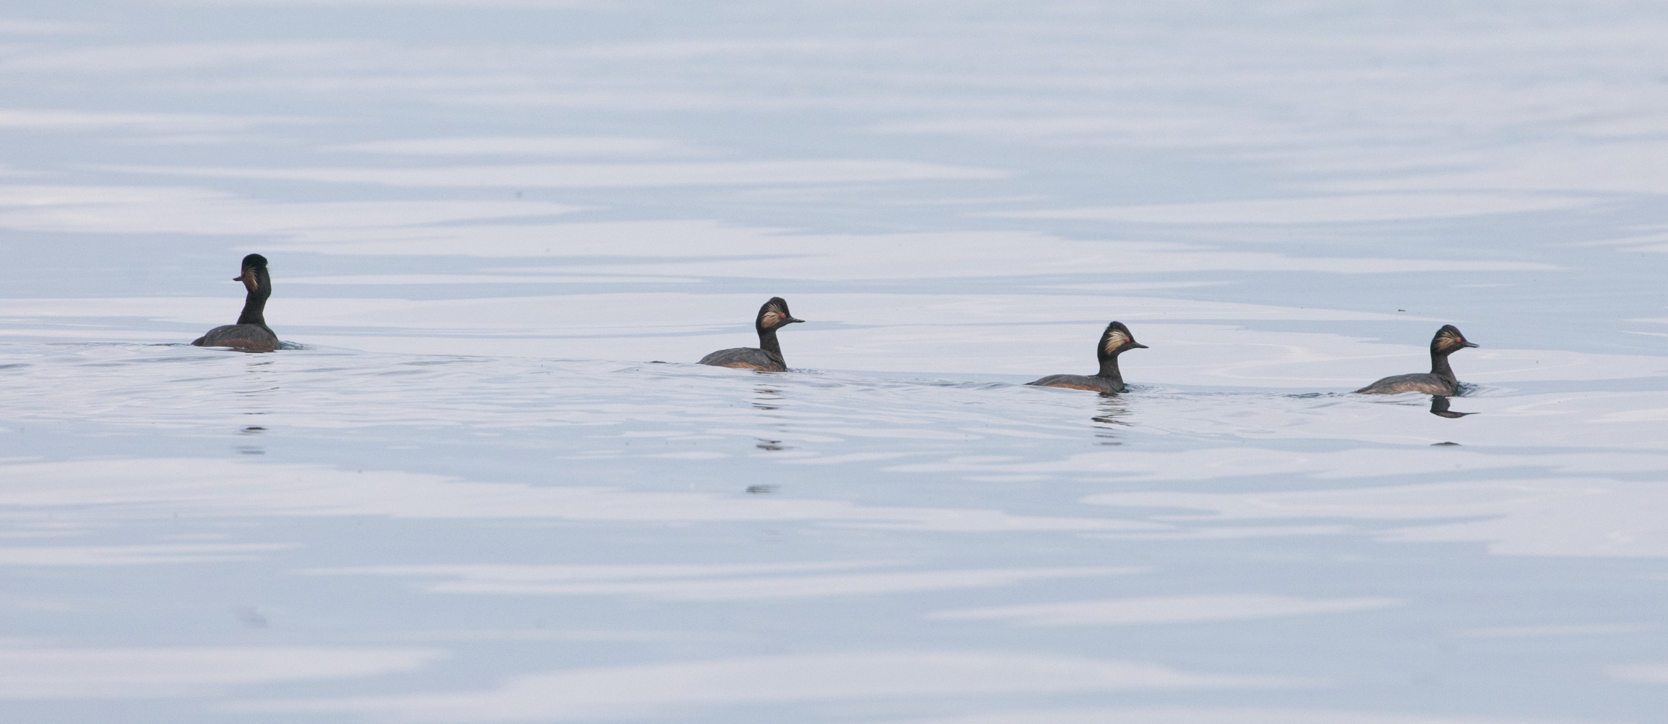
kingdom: Animalia
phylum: Chordata
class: Aves
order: Podicipediformes
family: Podicipedidae
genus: Podiceps
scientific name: Podiceps nigricollis
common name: Black-necked grebe
